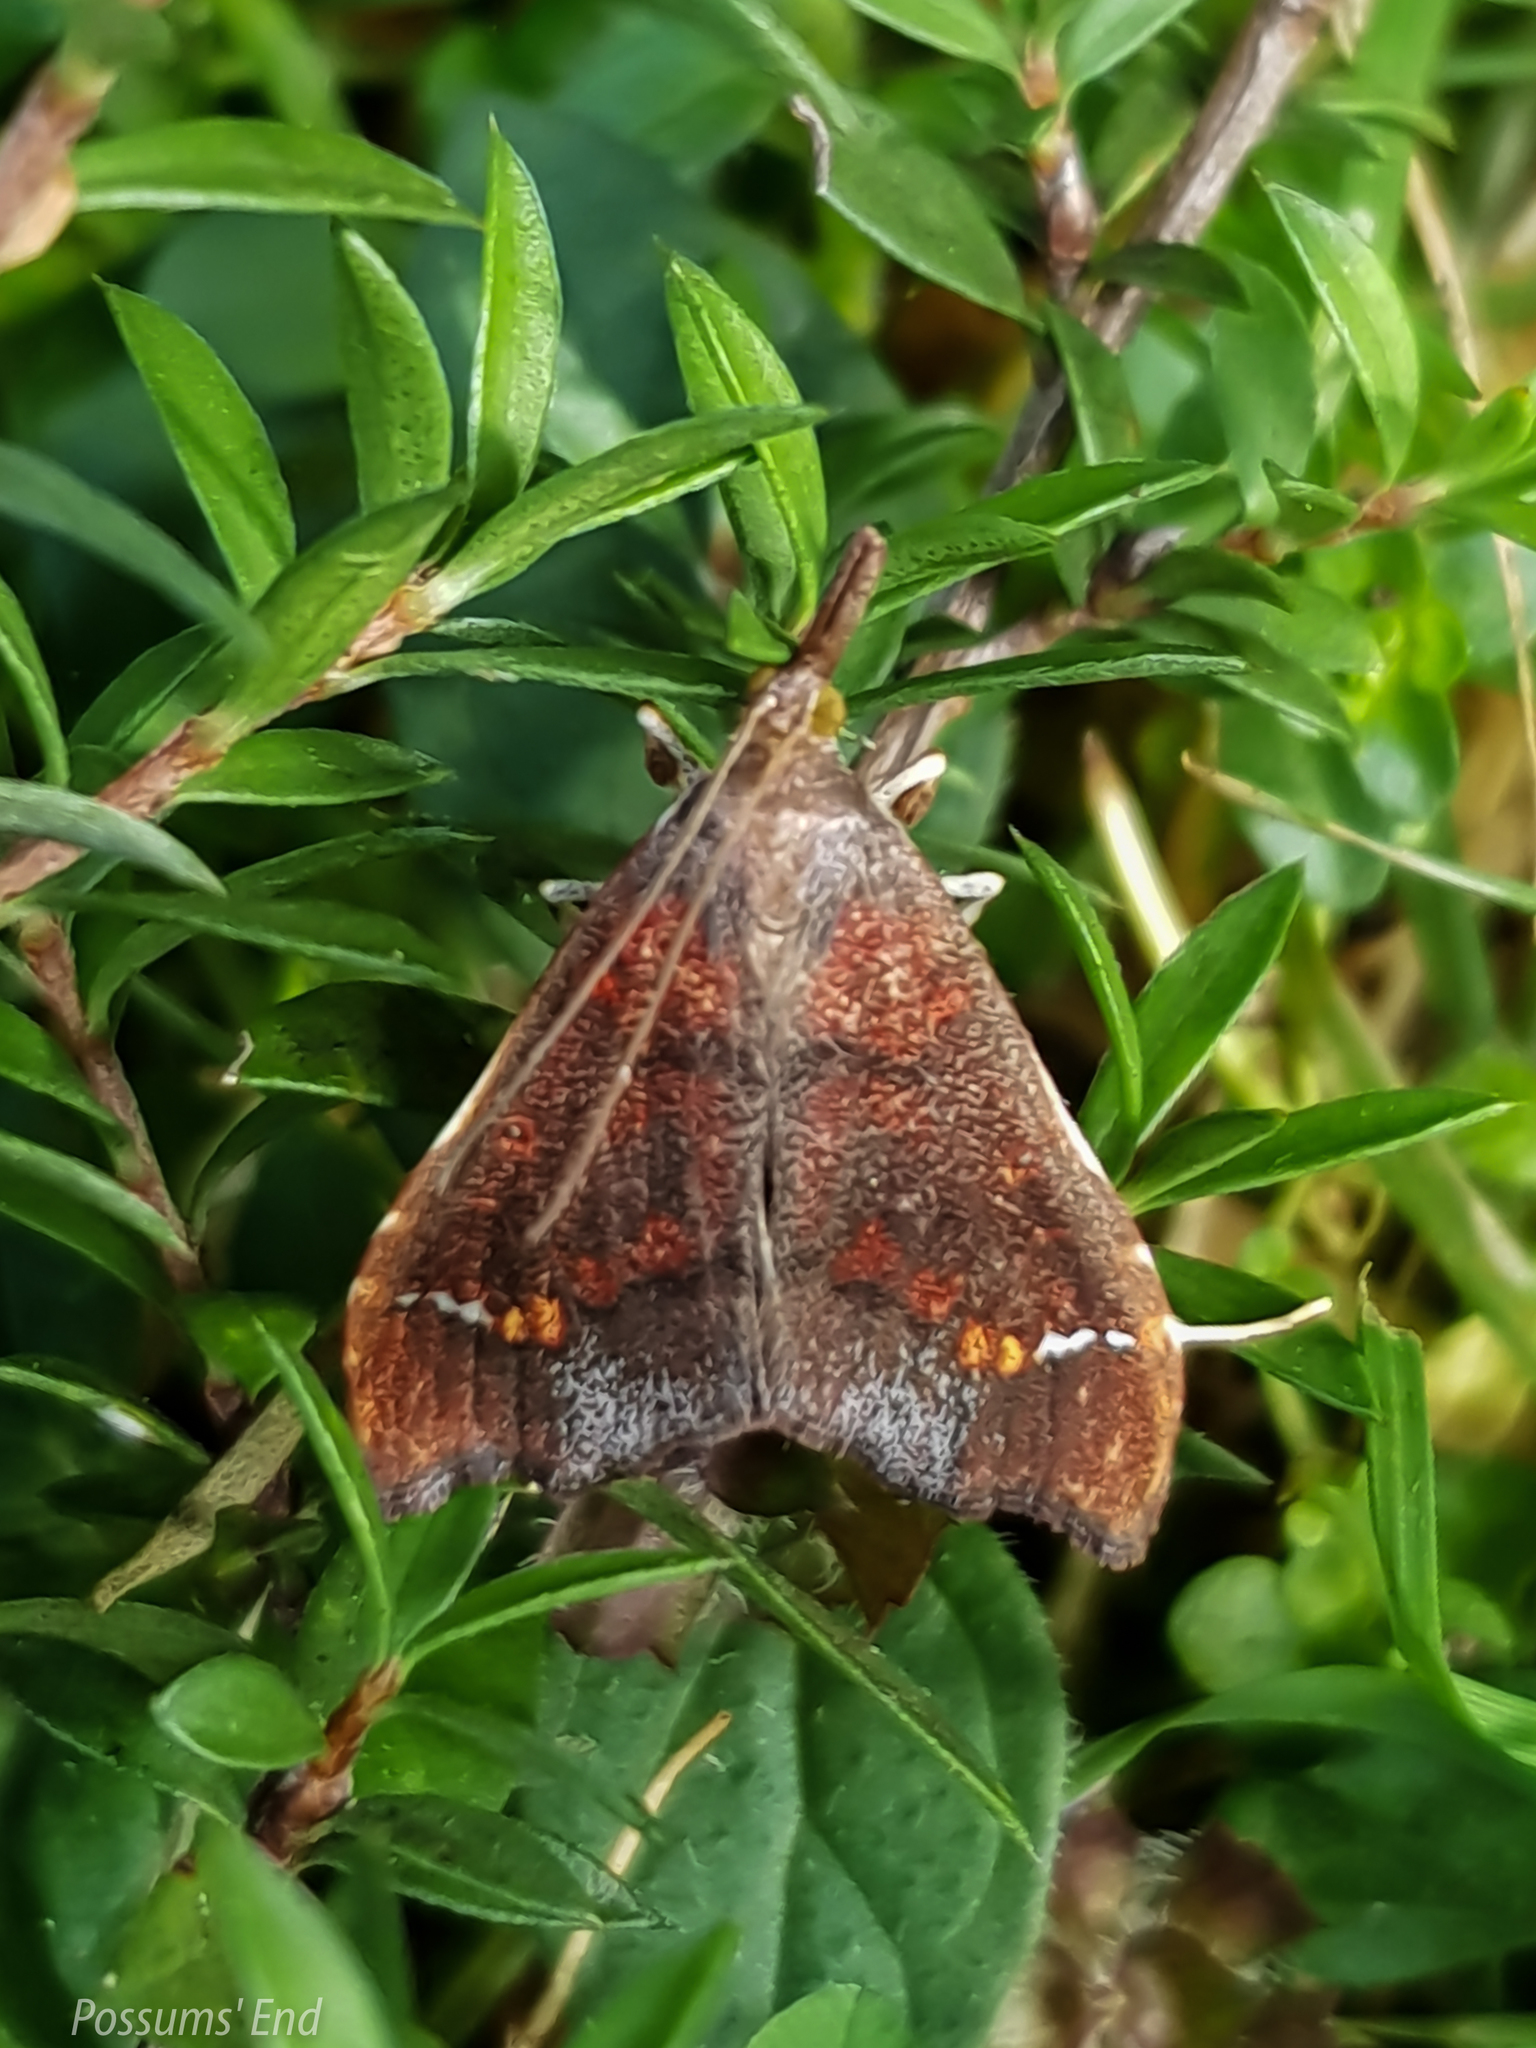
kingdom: Animalia
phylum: Arthropoda
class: Insecta
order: Lepidoptera
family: Crambidae
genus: Deana
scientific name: Deana hybreasalis
